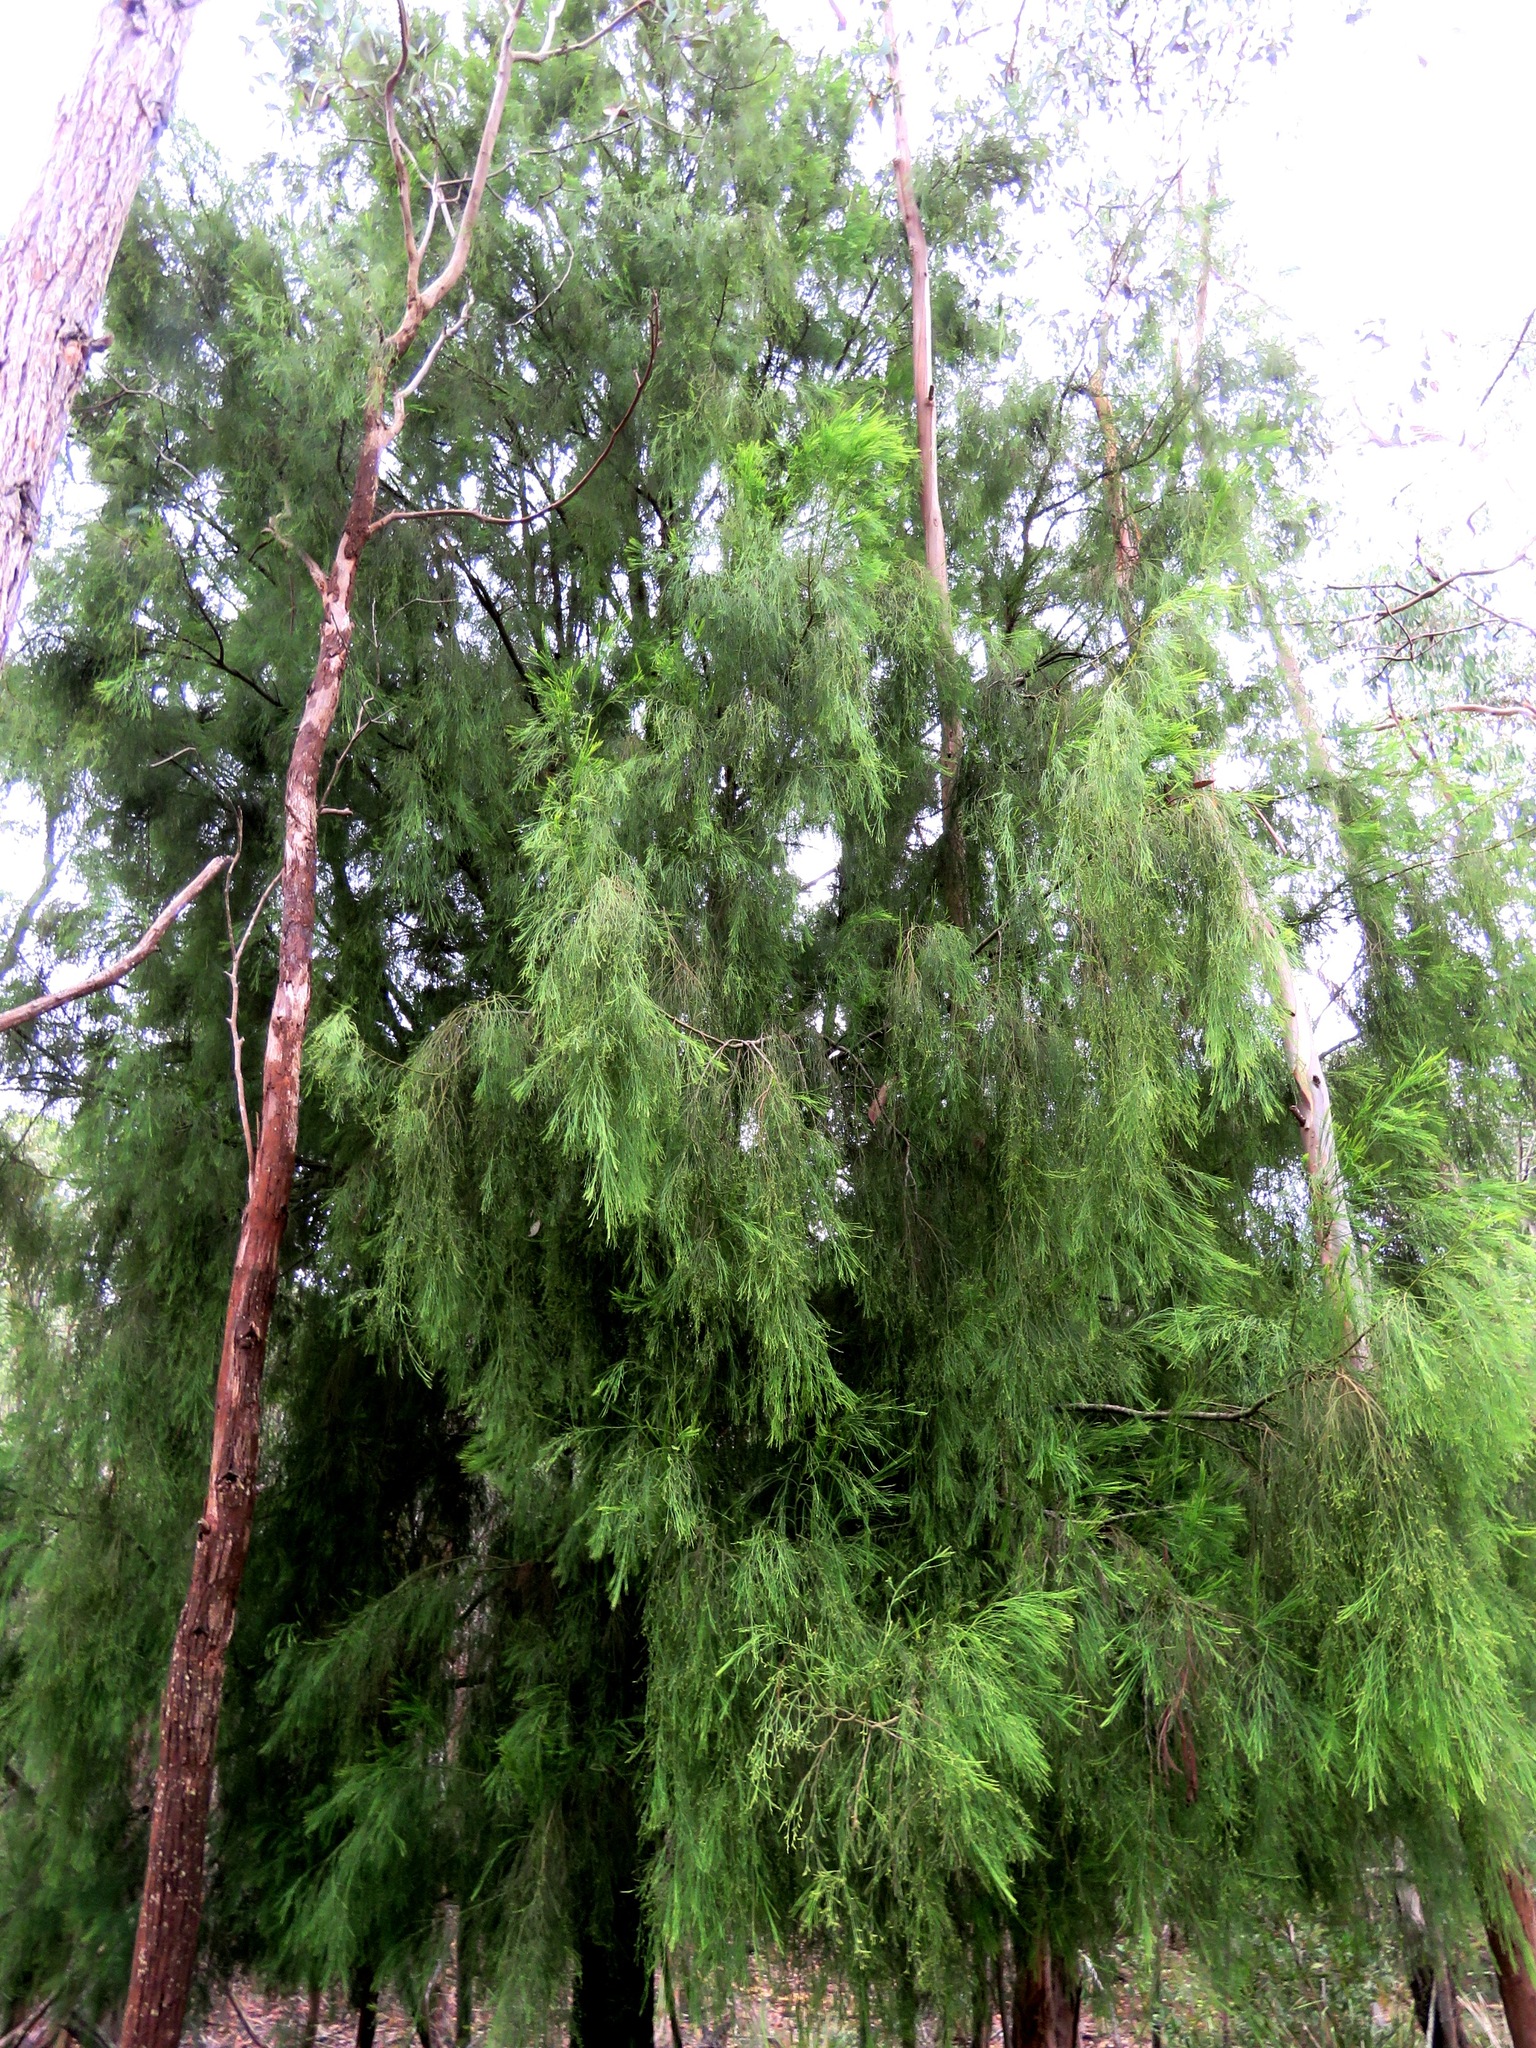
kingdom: Plantae
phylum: Tracheophyta
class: Magnoliopsida
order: Santalales
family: Santalaceae
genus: Exocarpos
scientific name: Exocarpos cupressiformis
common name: Cherry ballart
